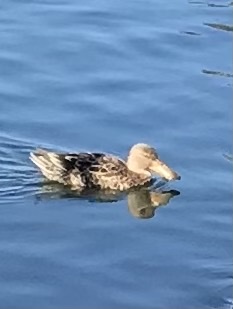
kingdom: Animalia
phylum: Chordata
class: Aves
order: Anseriformes
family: Anatidae
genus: Spatula
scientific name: Spatula clypeata
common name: Northern shoveler
